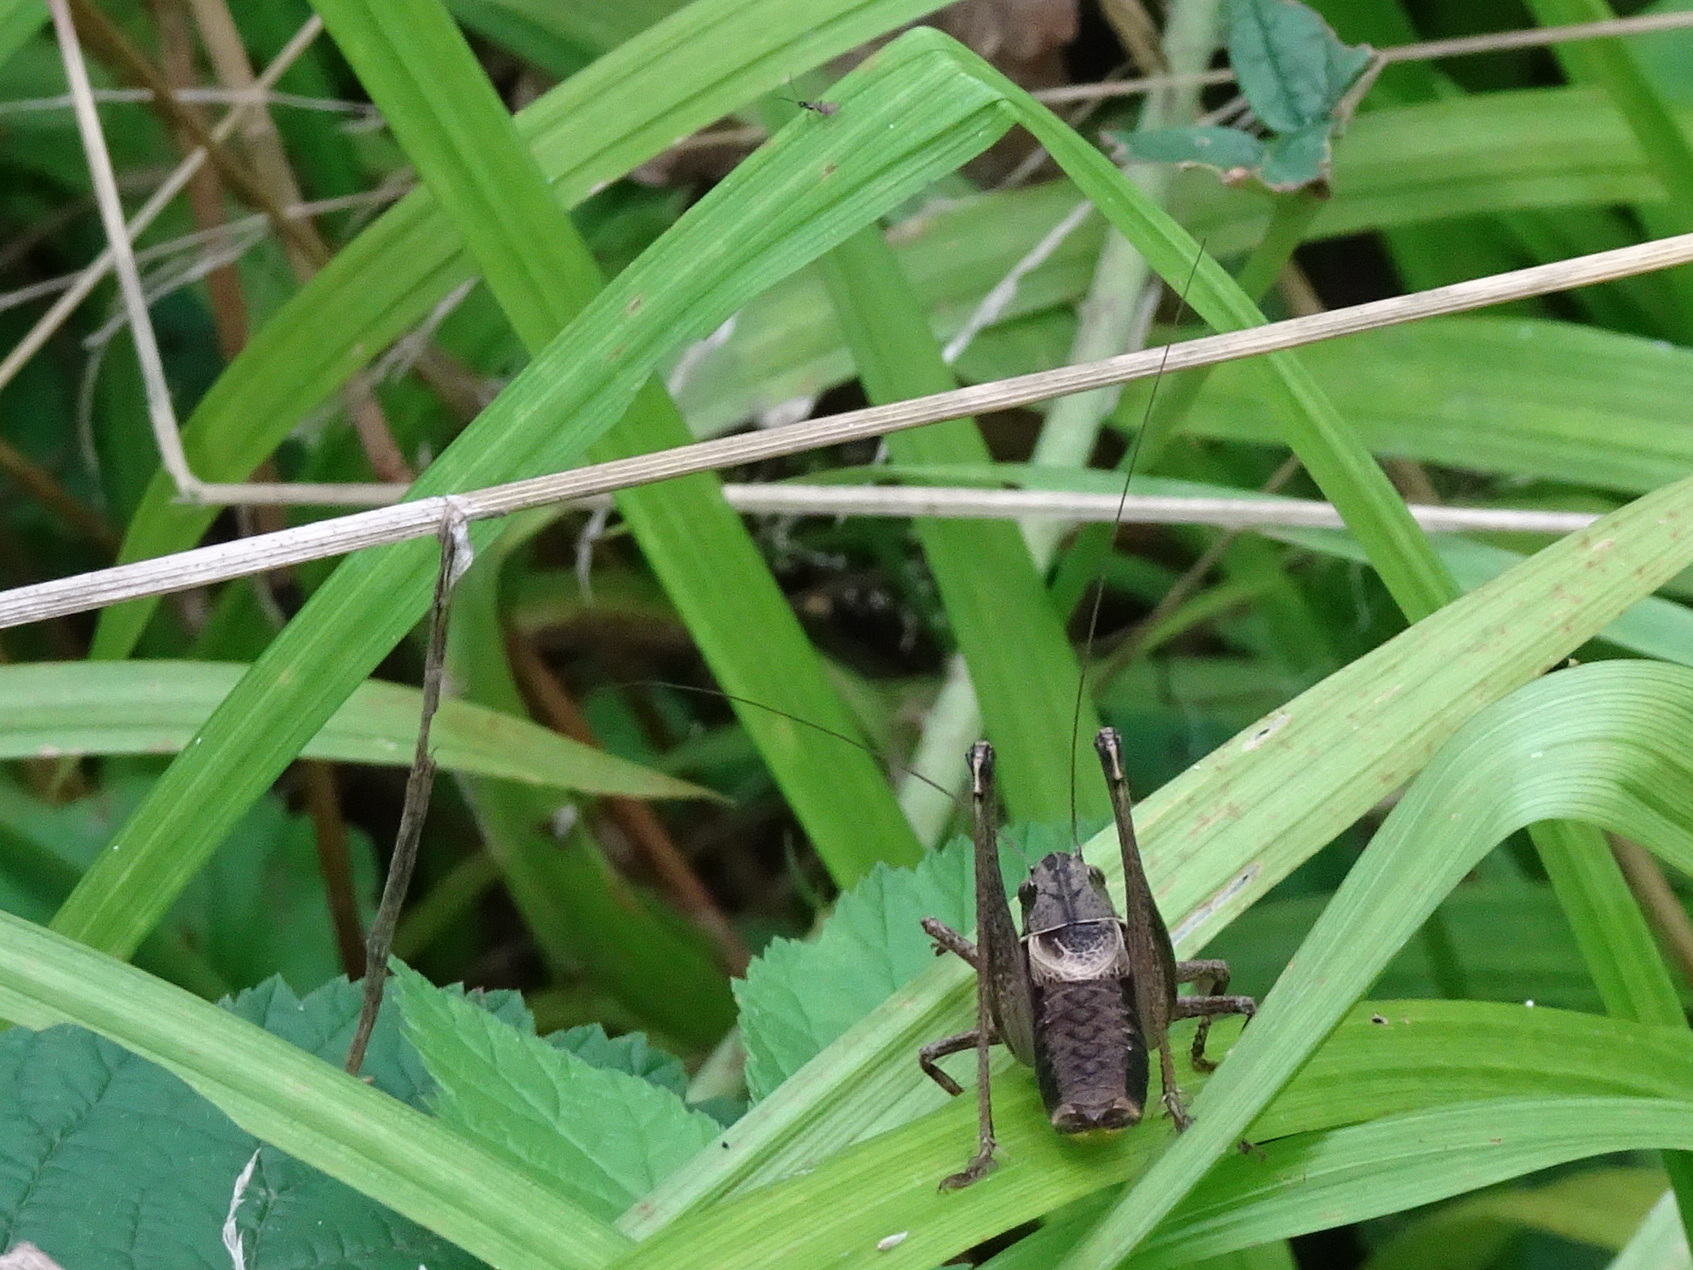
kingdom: Animalia
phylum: Arthropoda
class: Insecta
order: Orthoptera
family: Tettigoniidae
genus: Pholidoptera
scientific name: Pholidoptera griseoaptera
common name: Dark bush-cricket
